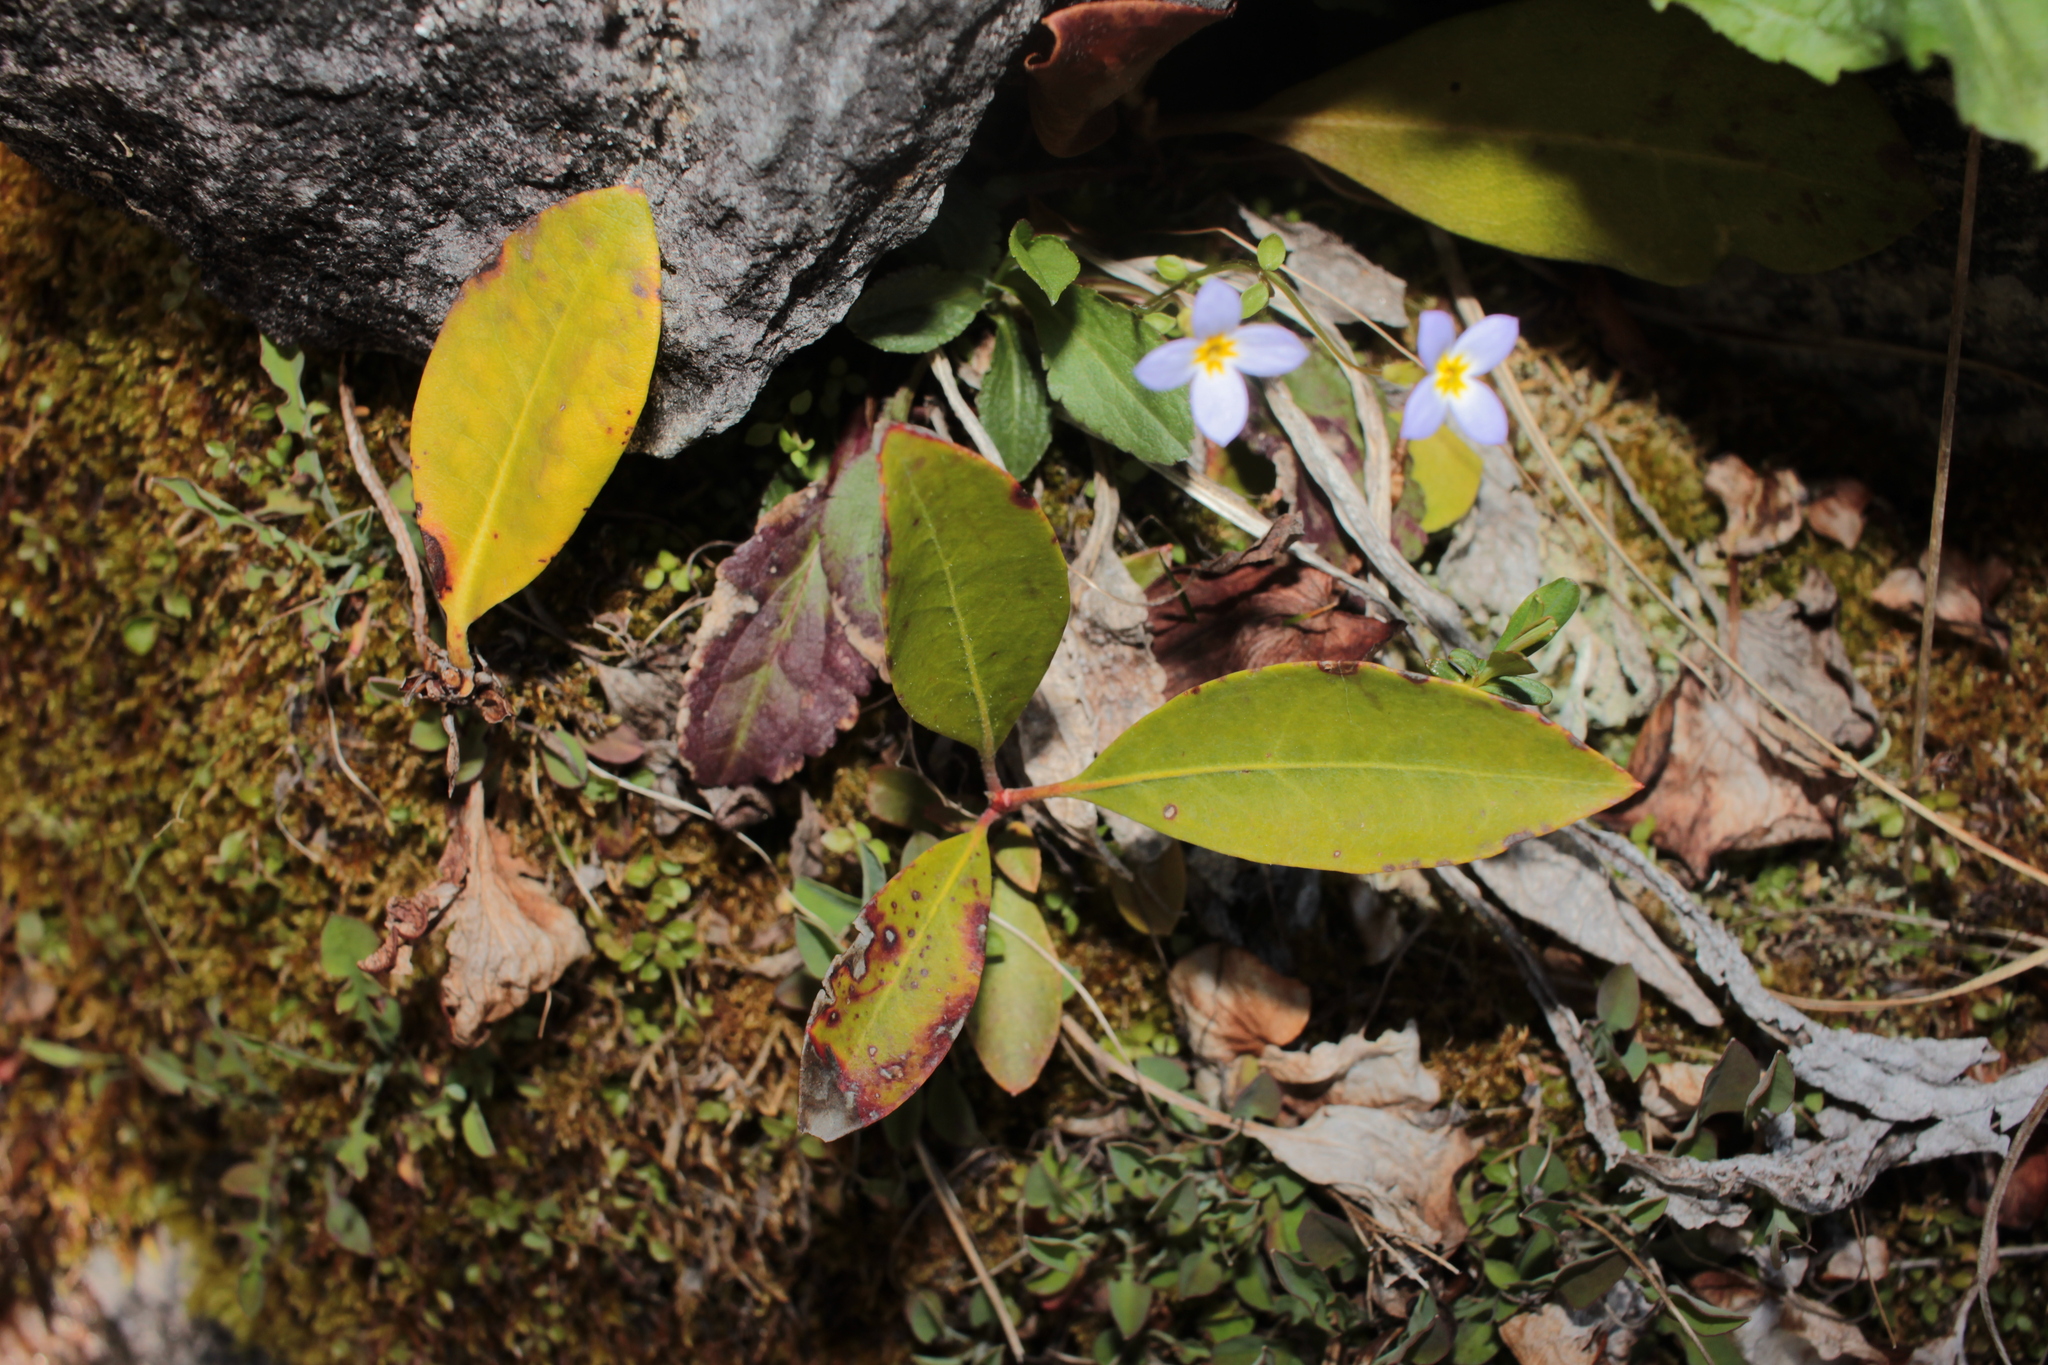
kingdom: Plantae
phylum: Tracheophyta
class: Magnoliopsida
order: Ericales
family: Ericaceae
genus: Kalmia
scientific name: Kalmia latifolia
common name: Mountain-laurel
